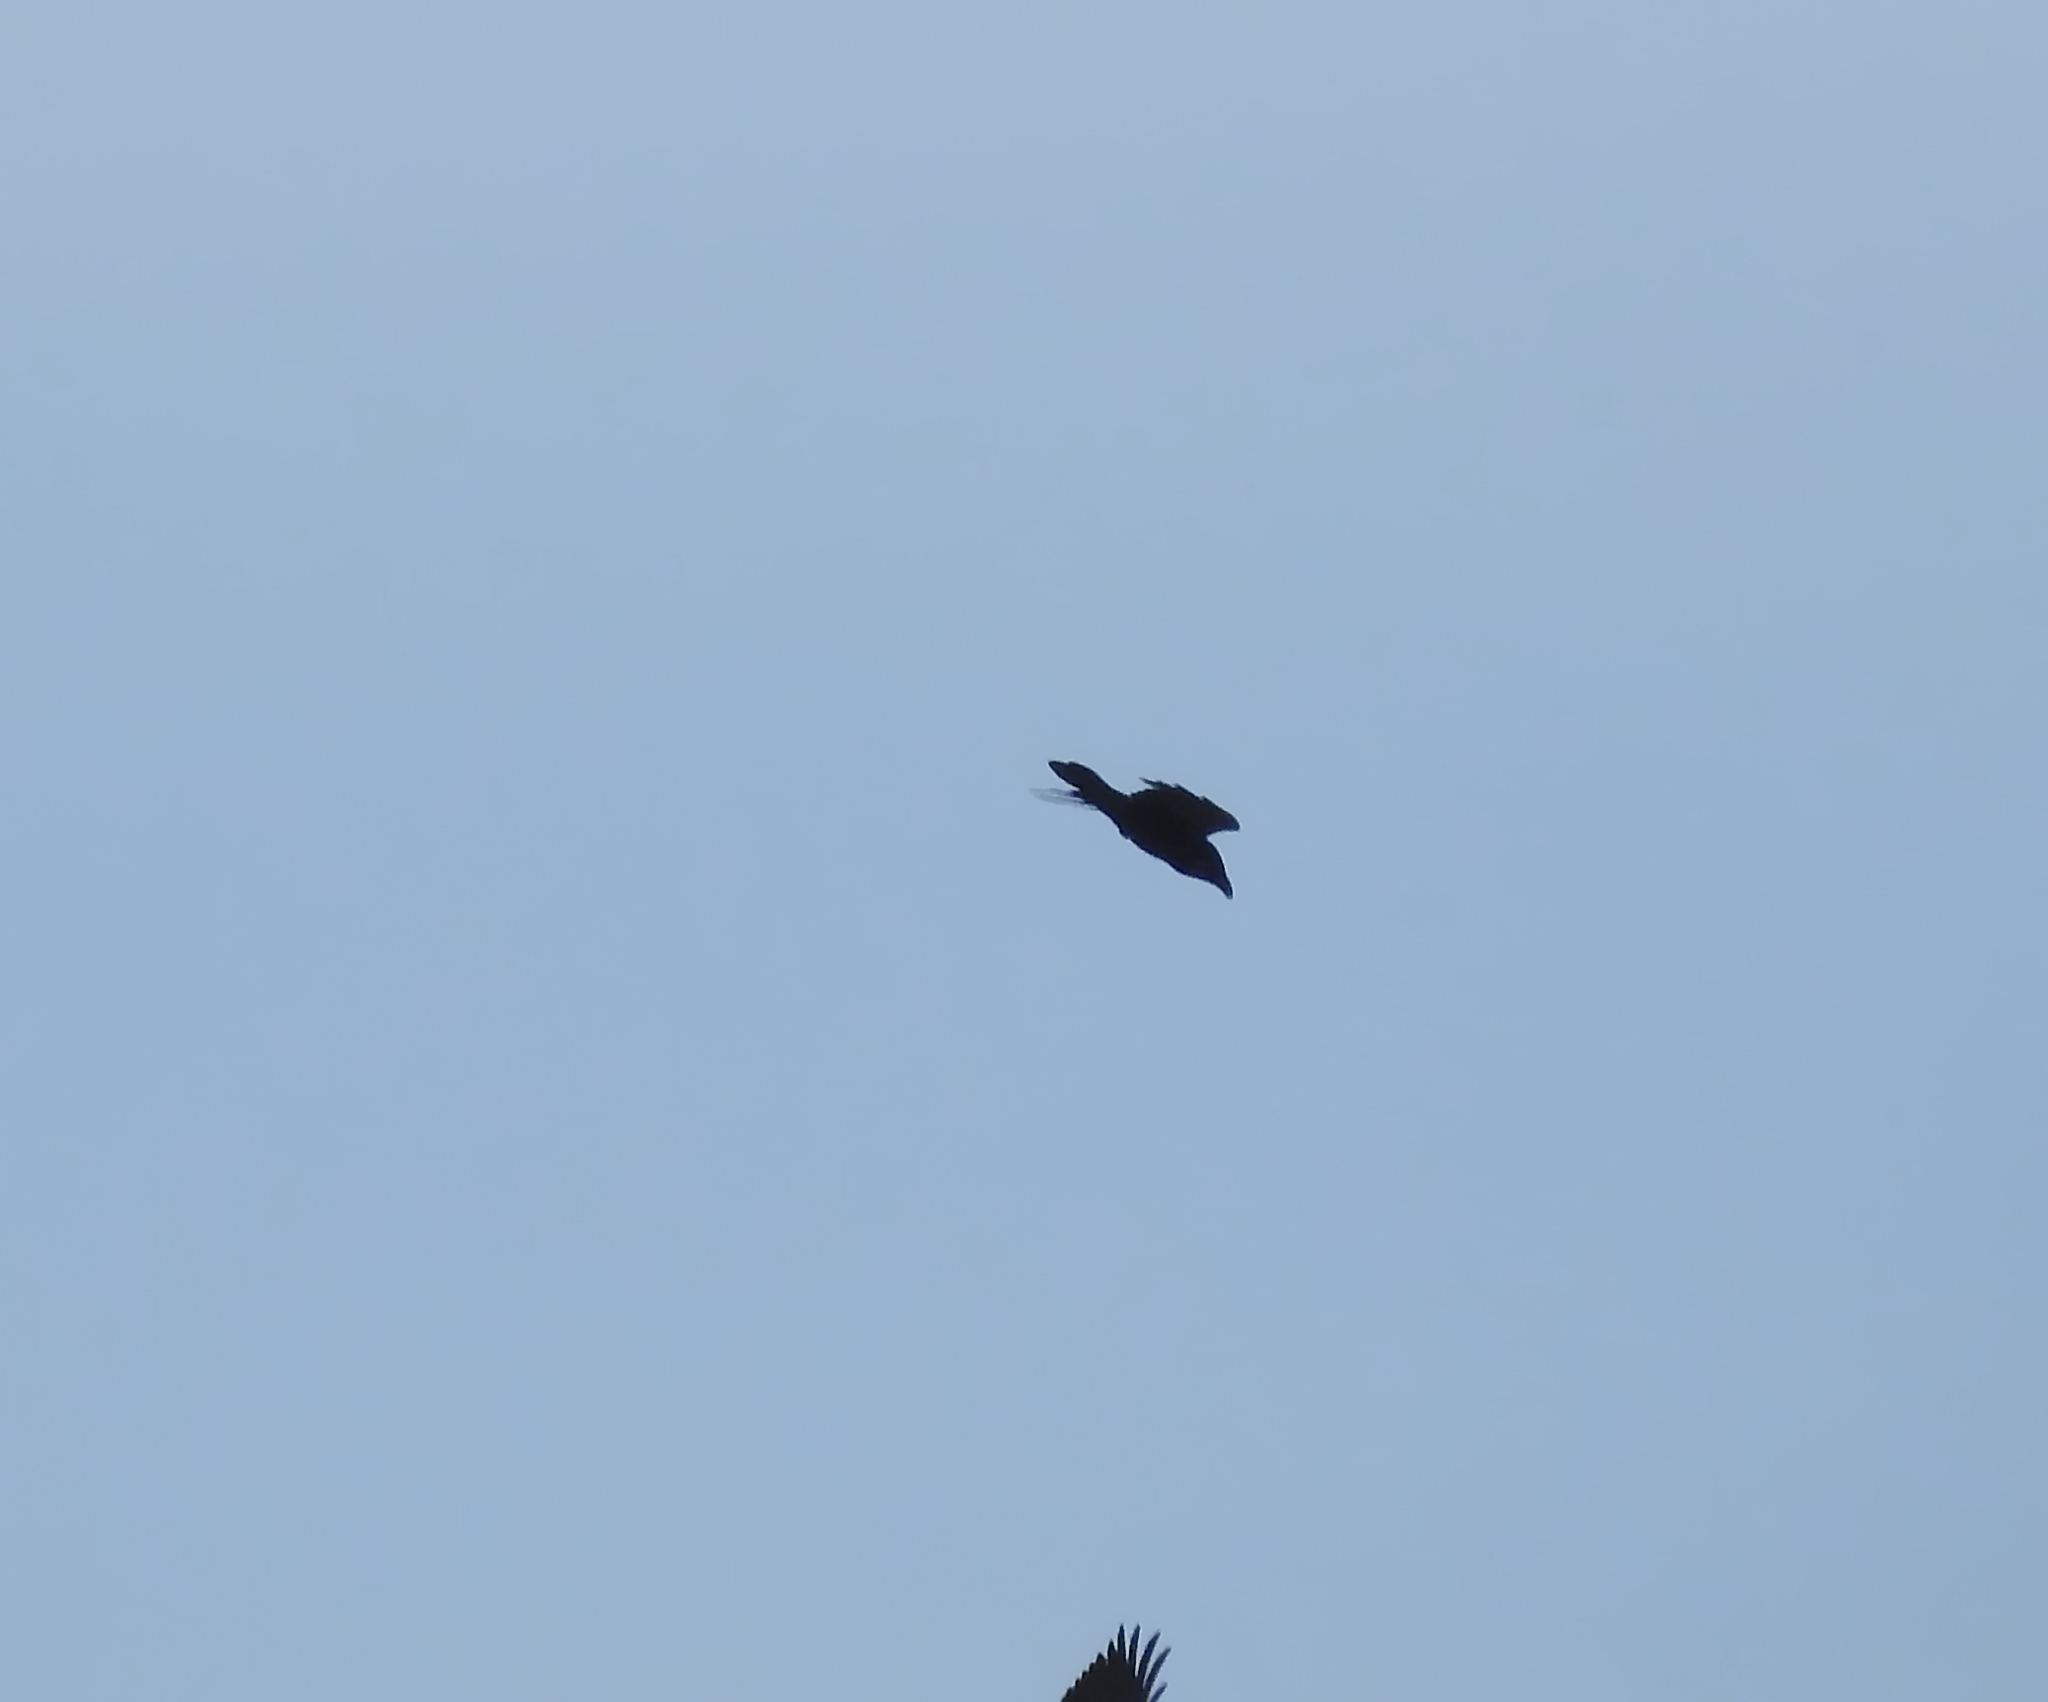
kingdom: Animalia
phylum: Chordata
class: Aves
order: Passeriformes
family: Corvidae
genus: Corvus
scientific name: Corvus corax
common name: Common raven
